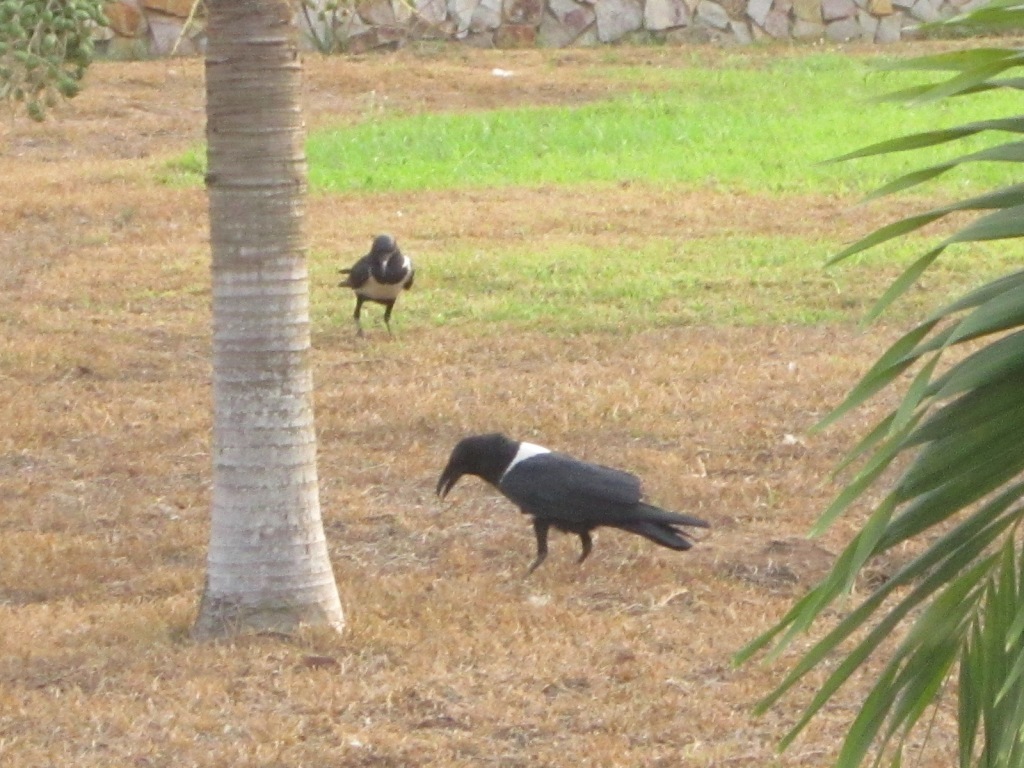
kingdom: Animalia
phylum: Chordata
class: Aves
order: Passeriformes
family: Corvidae
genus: Corvus
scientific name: Corvus albus
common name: Pied crow
